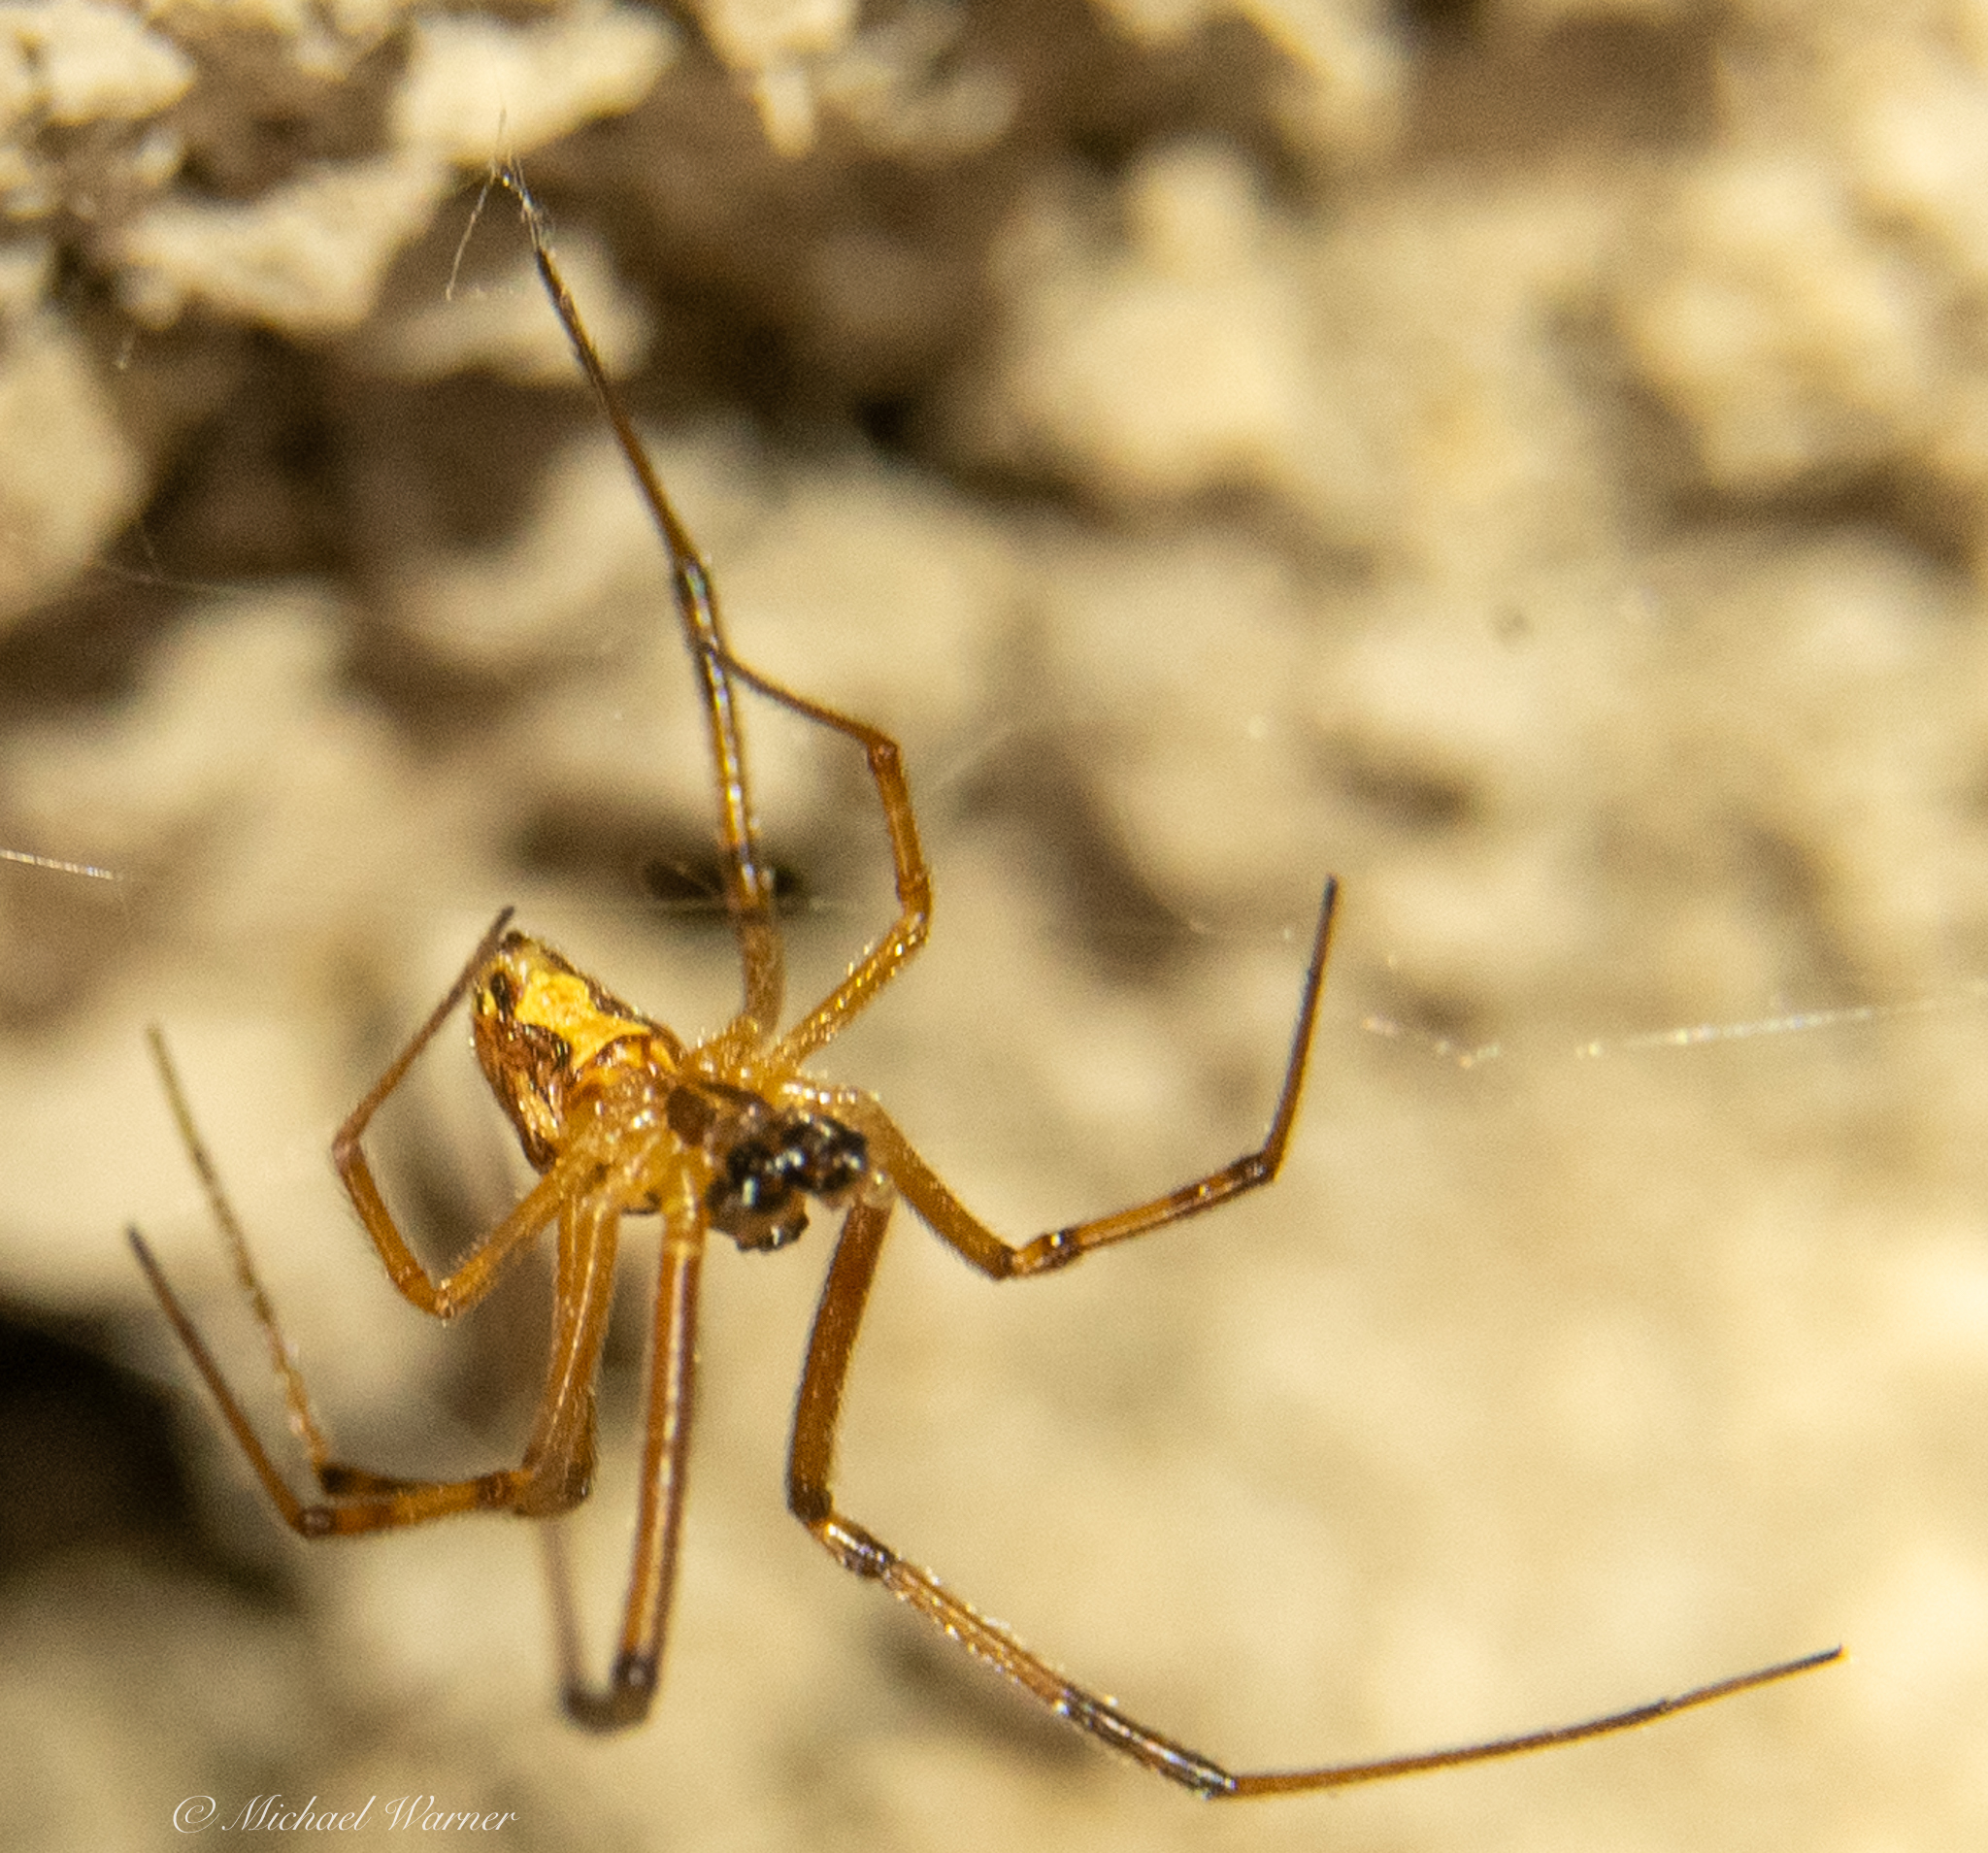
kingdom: Animalia
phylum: Arthropoda
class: Arachnida
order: Araneae
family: Theridiidae
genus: Latrodectus
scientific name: Latrodectus hesperus
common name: Western black widow
